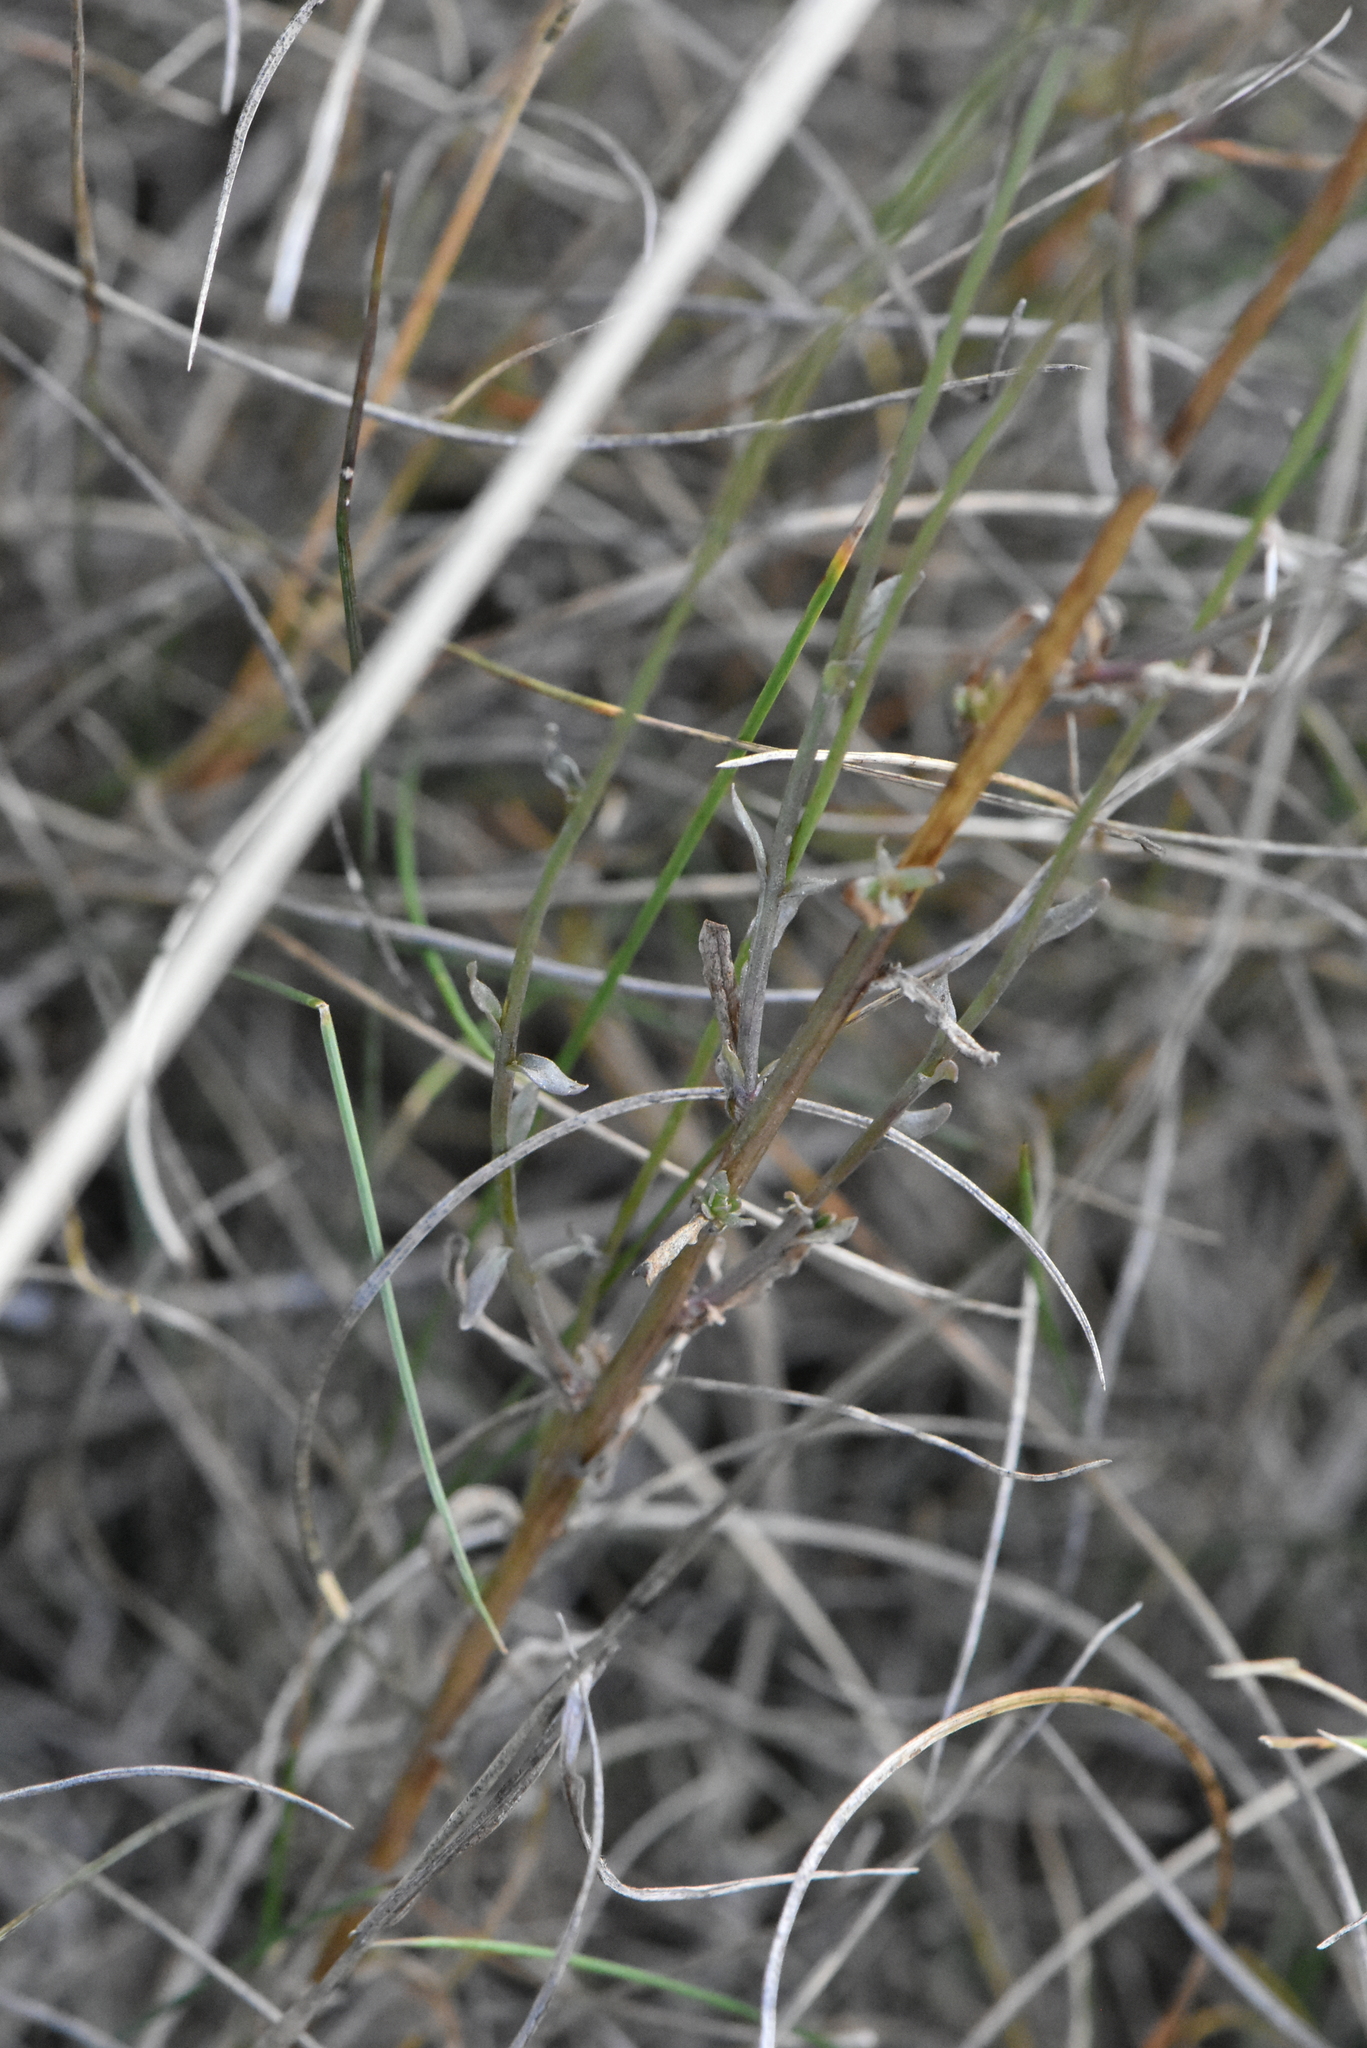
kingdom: Plantae
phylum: Tracheophyta
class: Magnoliopsida
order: Asterales
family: Campanulaceae
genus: Jasione
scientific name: Jasione montana
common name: Sheep's-bit
